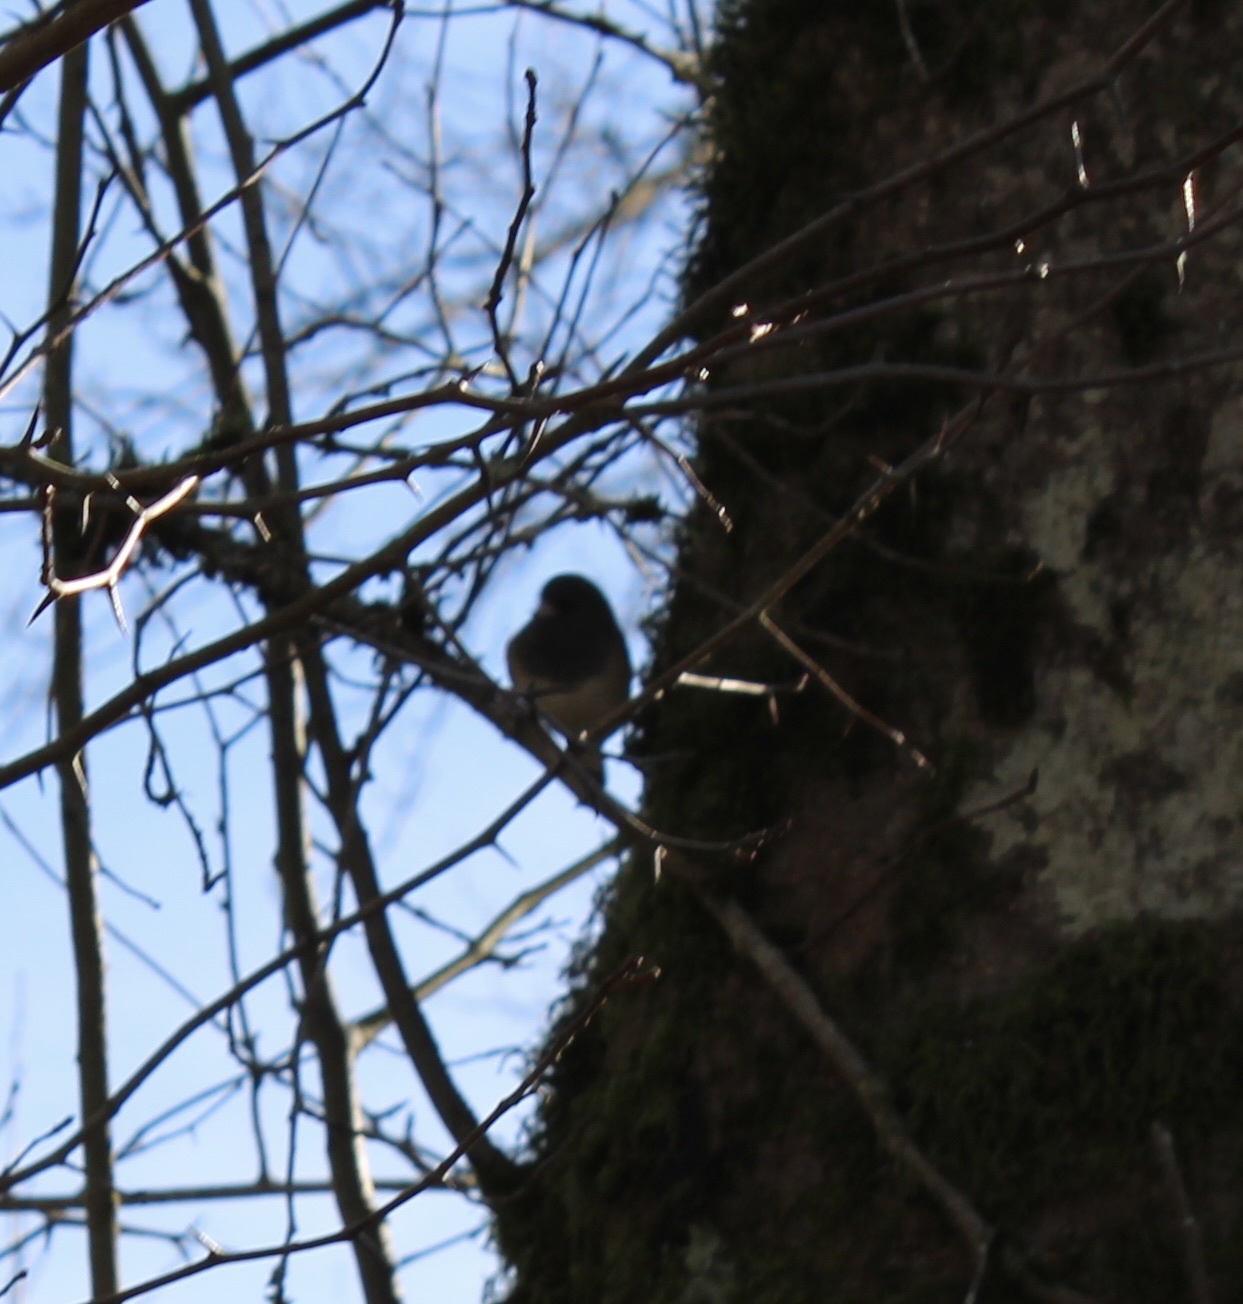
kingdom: Animalia
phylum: Chordata
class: Aves
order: Passeriformes
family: Passerellidae
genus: Junco
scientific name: Junco hyemalis
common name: Dark-eyed junco
